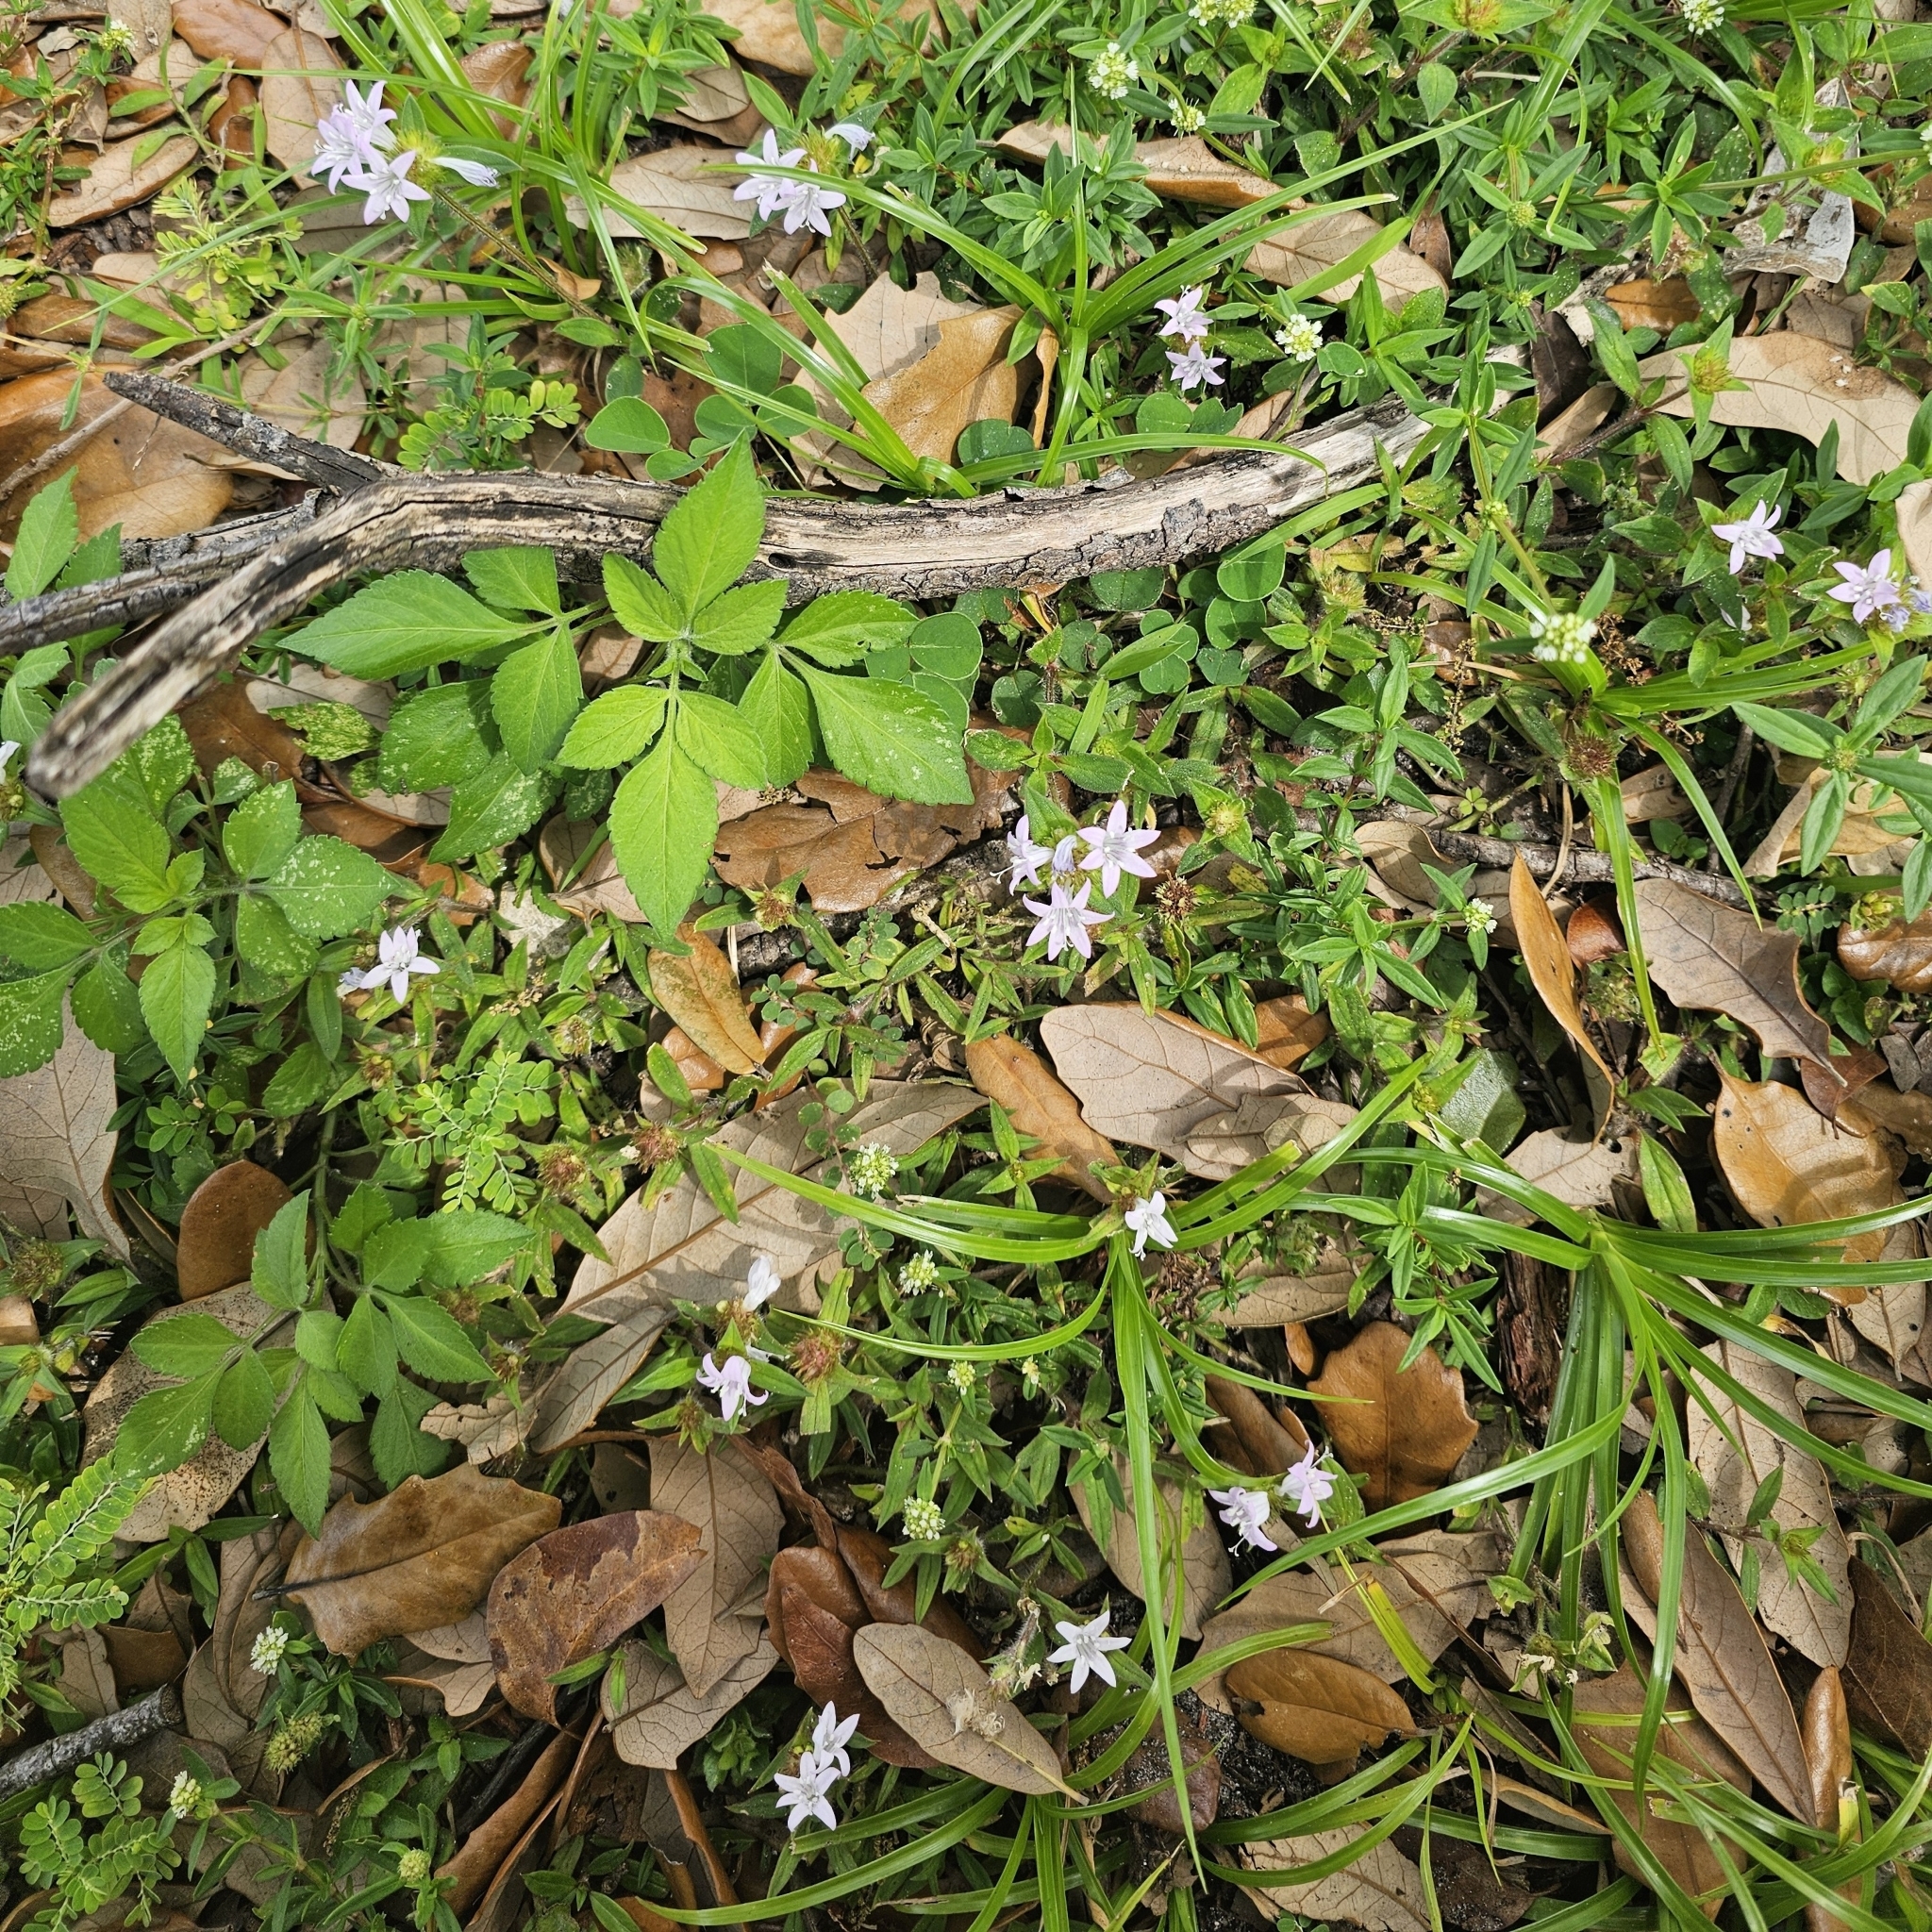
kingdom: Plantae
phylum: Tracheophyta
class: Magnoliopsida
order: Gentianales
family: Rubiaceae
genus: Richardia
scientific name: Richardia grandiflora
